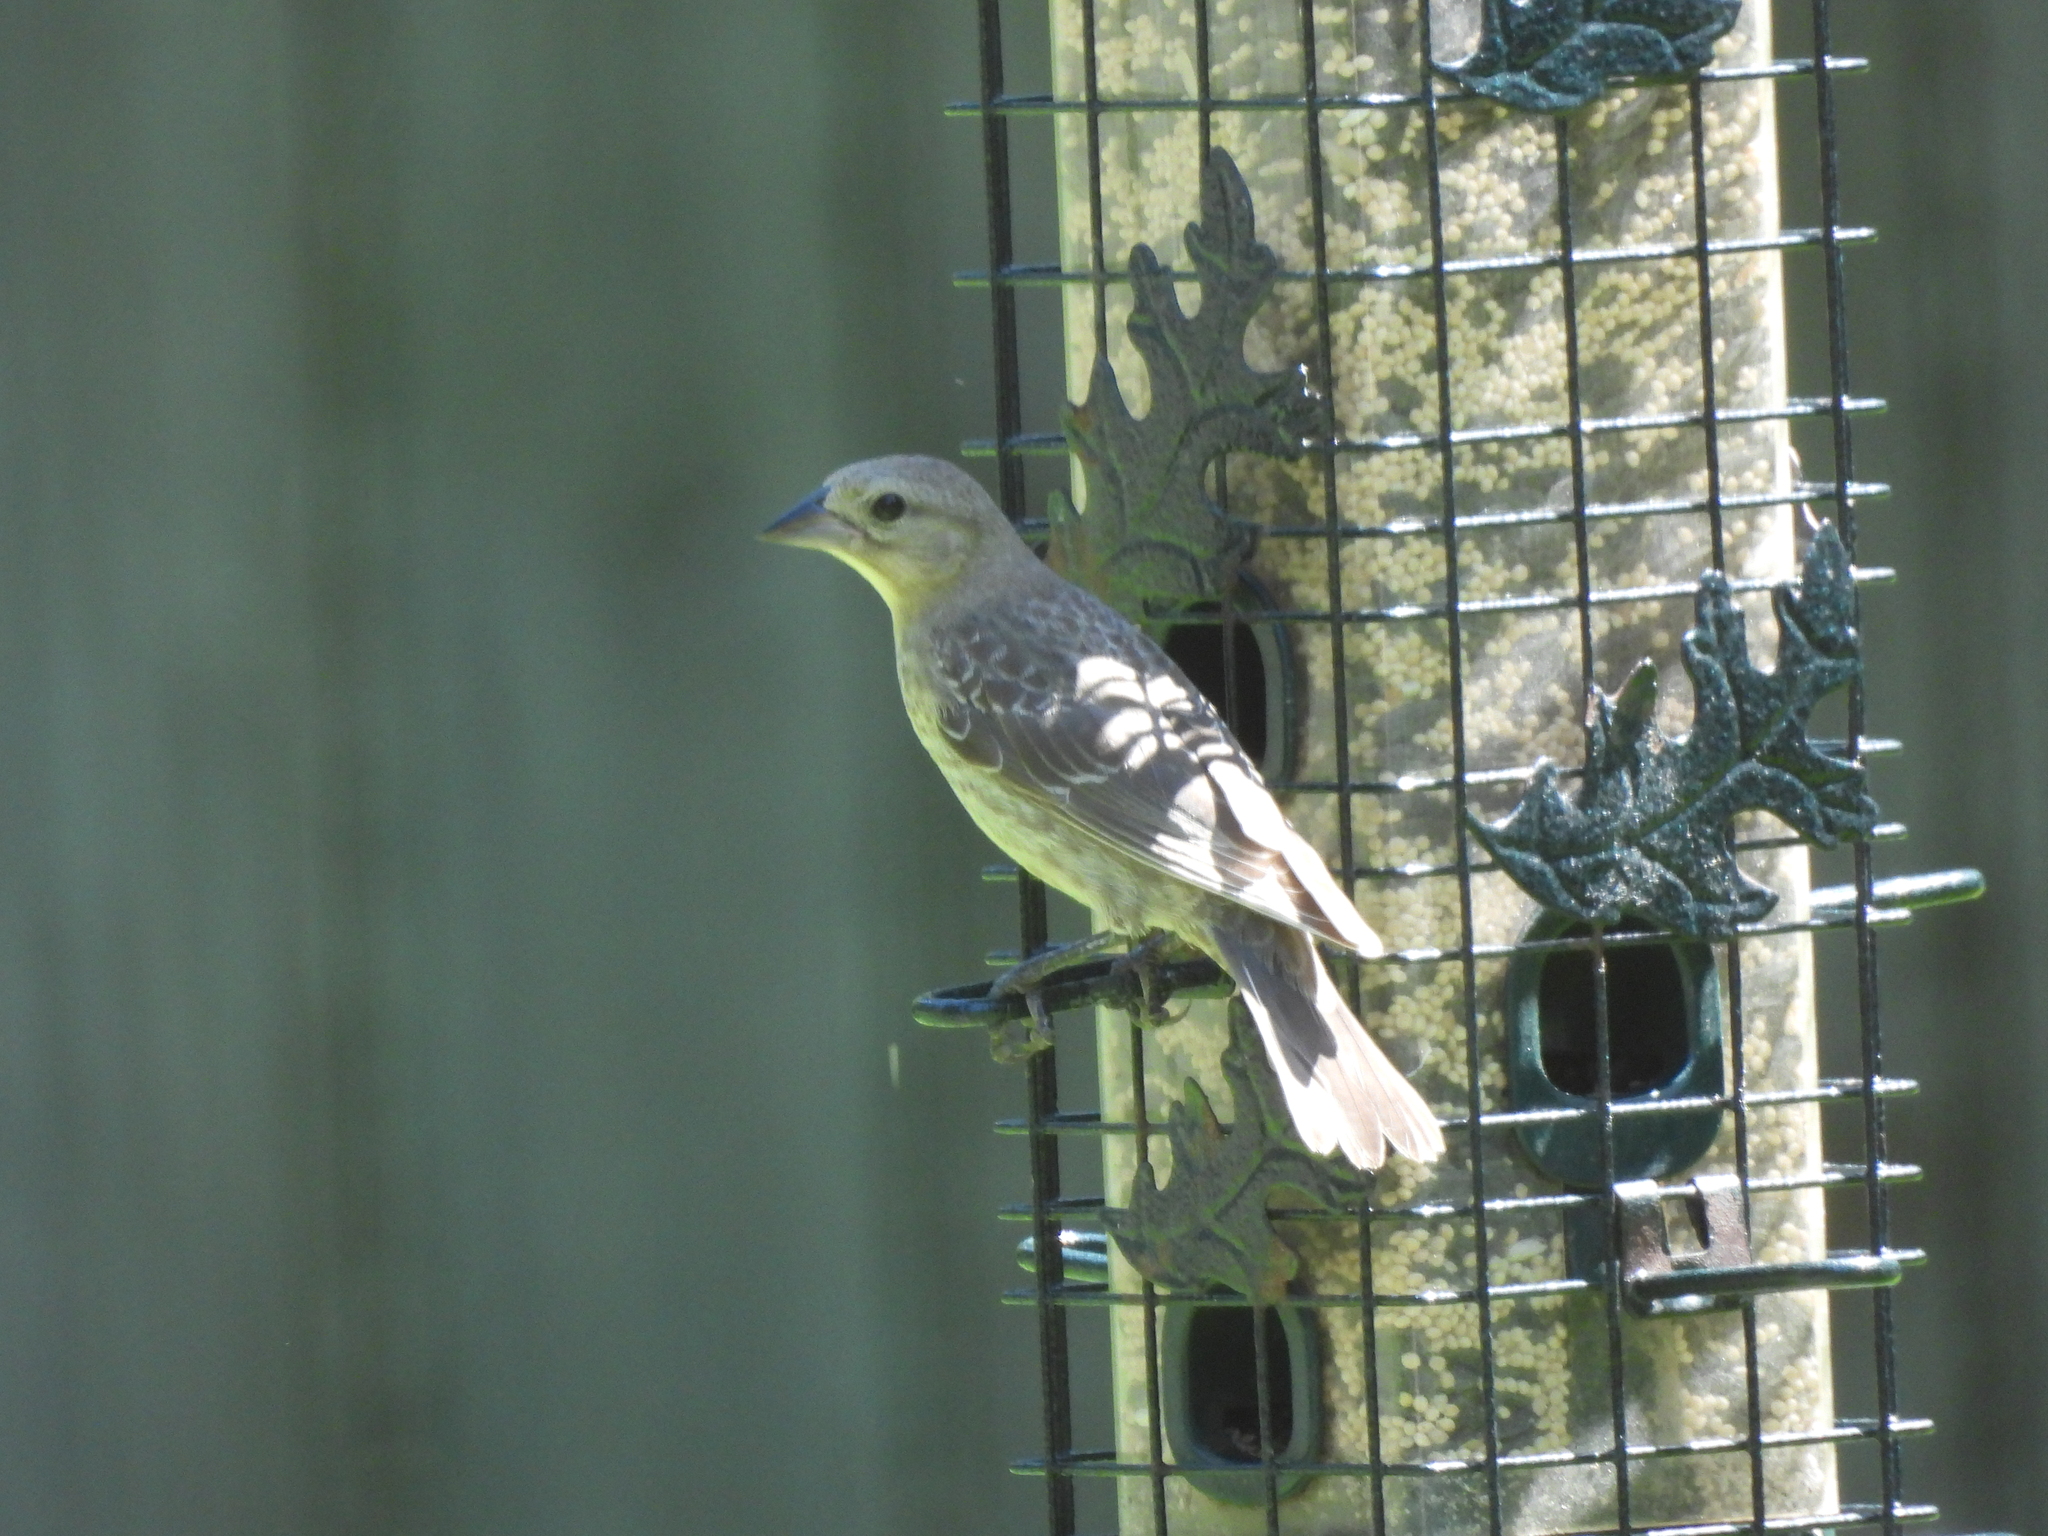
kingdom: Animalia
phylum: Chordata
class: Aves
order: Passeriformes
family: Icteridae
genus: Molothrus
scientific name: Molothrus ater
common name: Brown-headed cowbird
